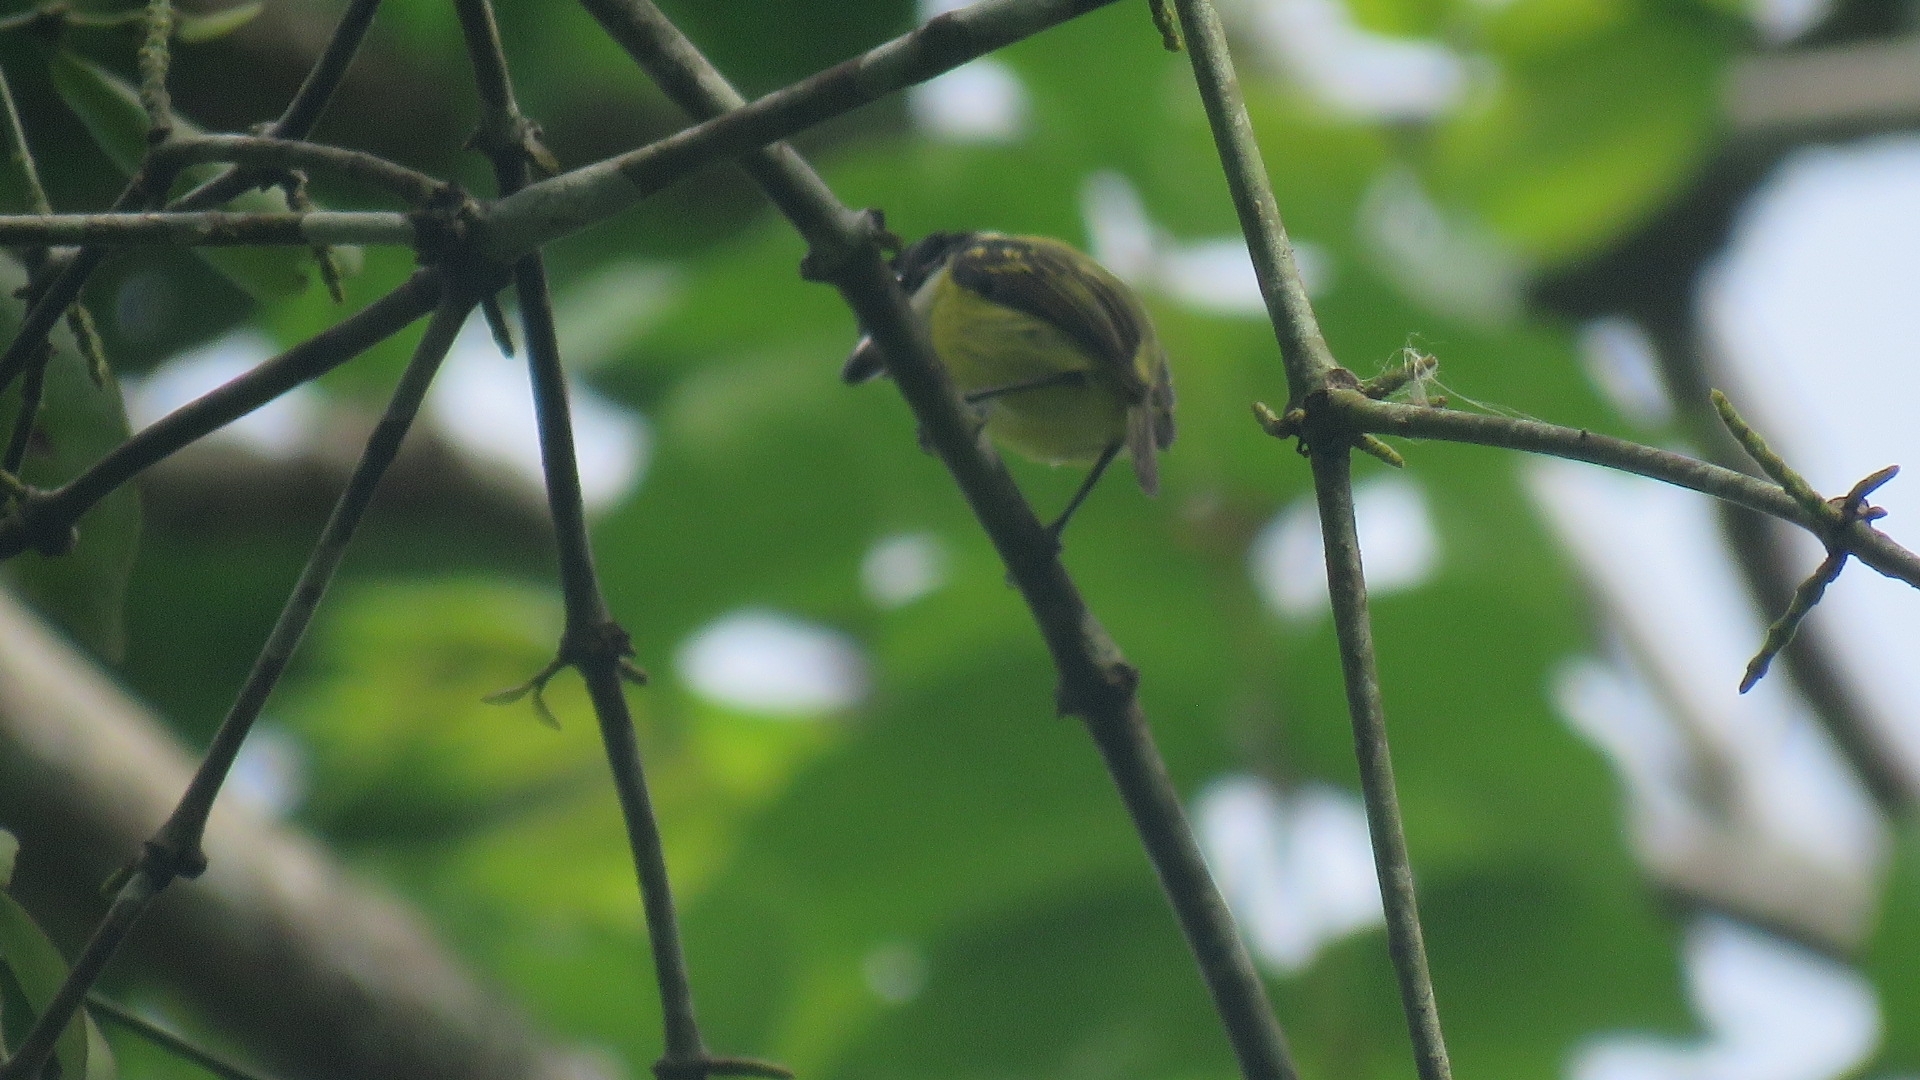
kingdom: Animalia
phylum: Chordata
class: Aves
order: Passeriformes
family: Tyrannidae
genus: Todirostrum
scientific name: Todirostrum nigriceps
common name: Black-headed tody-flycatcher
